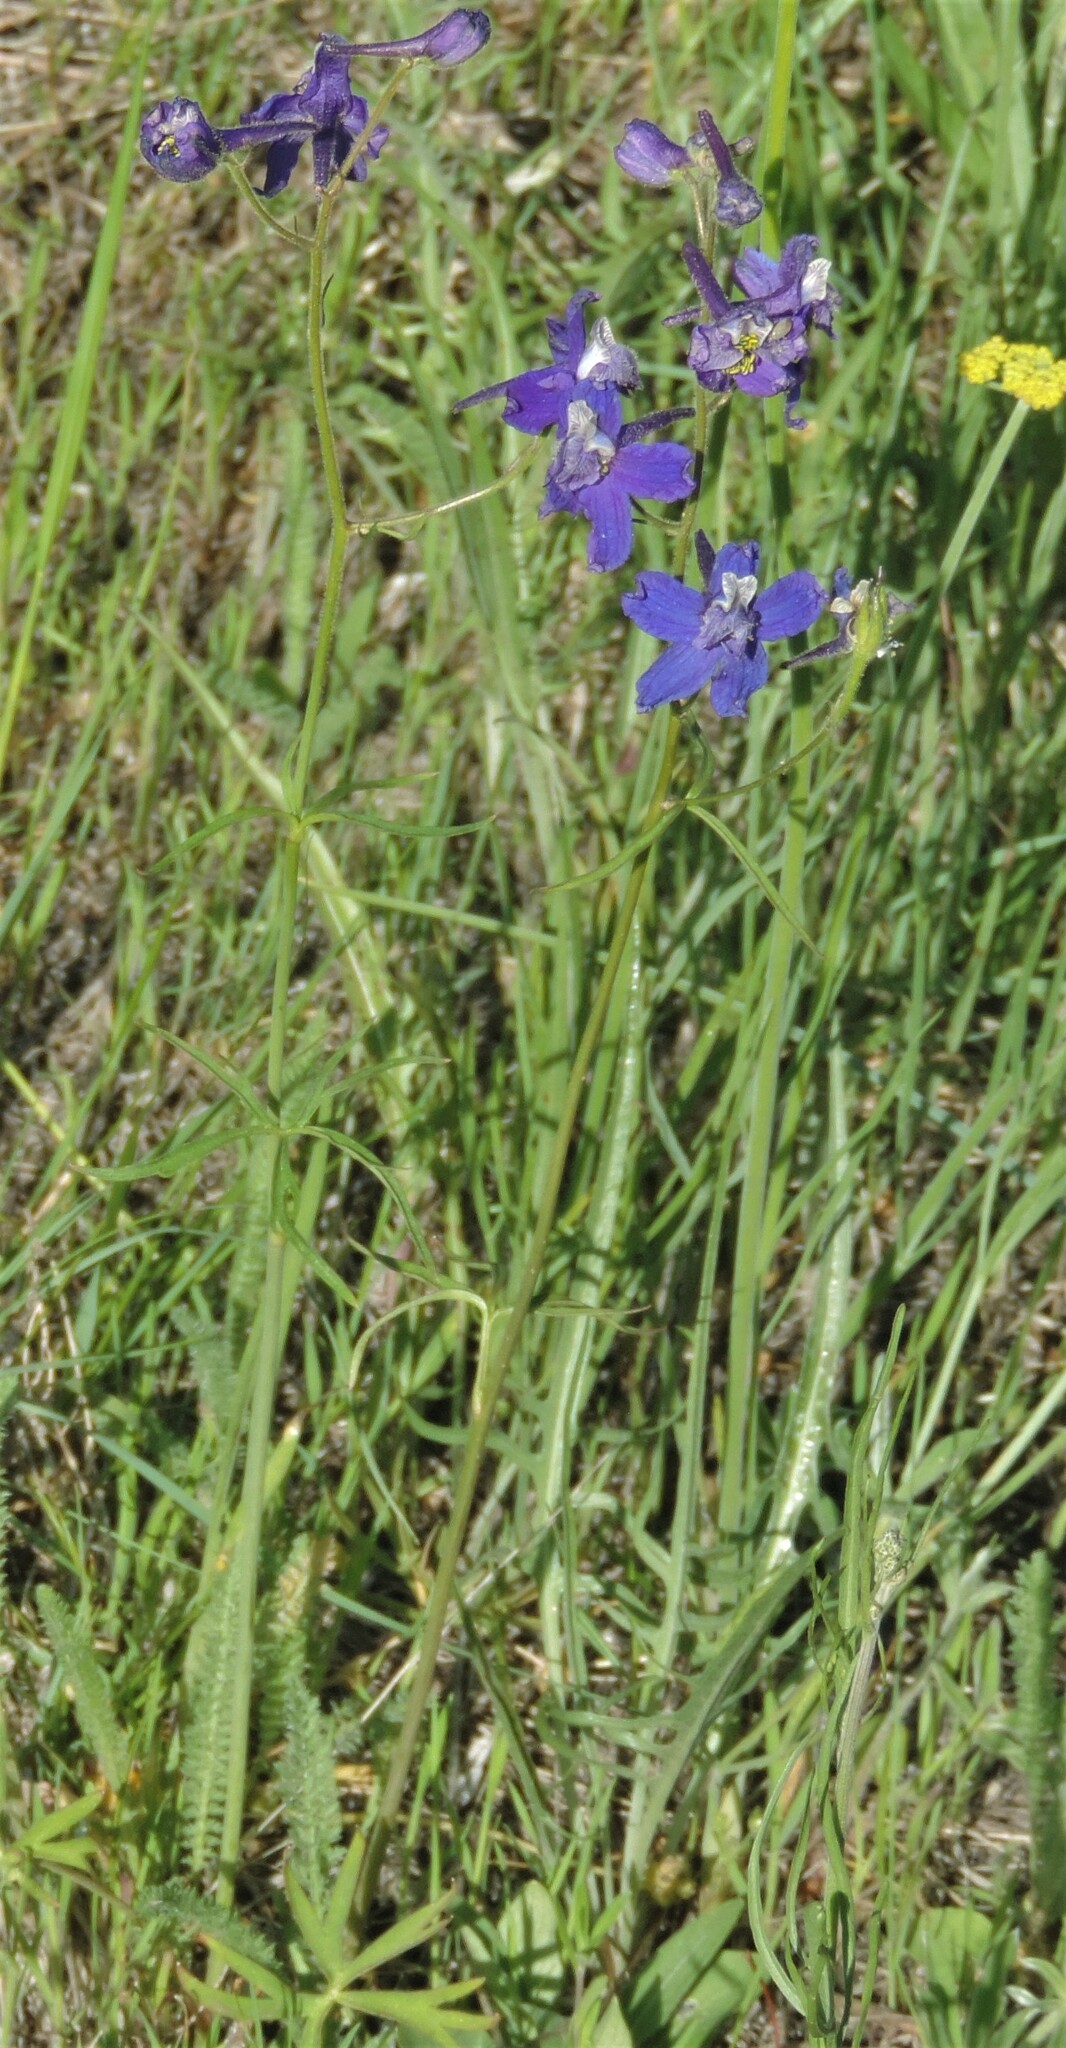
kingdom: Plantae
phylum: Tracheophyta
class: Magnoliopsida
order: Ranunculales
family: Ranunculaceae
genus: Delphinium
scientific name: Delphinium nuttallianum
